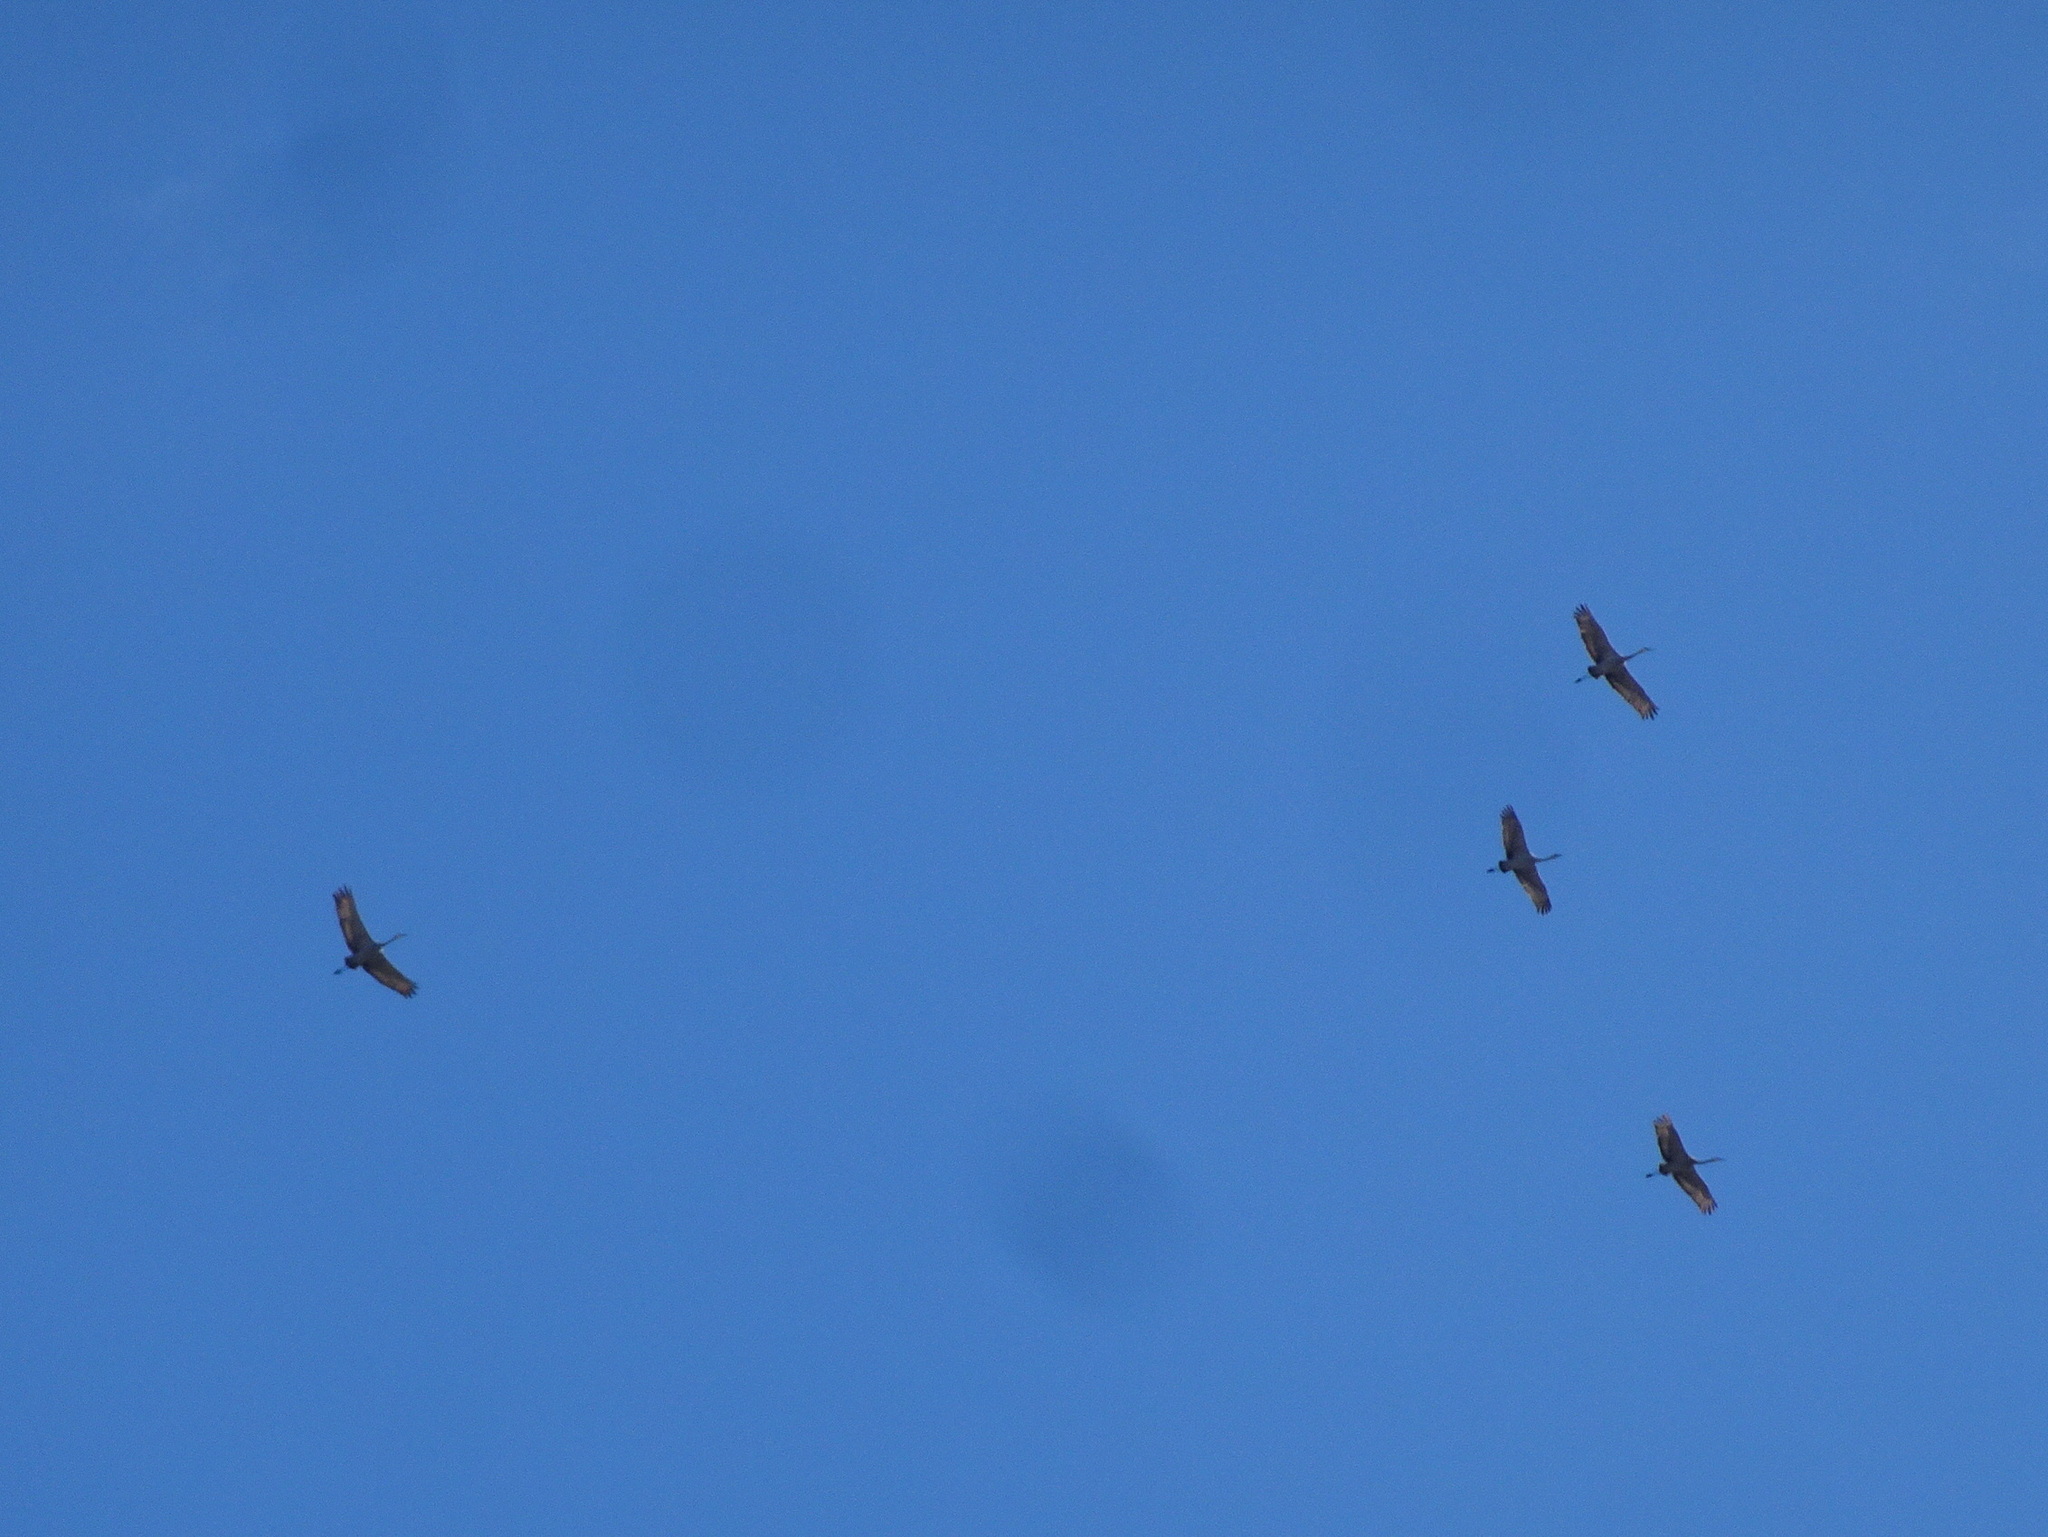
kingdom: Animalia
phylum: Chordata
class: Aves
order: Gruiformes
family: Gruidae
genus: Grus
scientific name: Grus canadensis
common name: Sandhill crane
